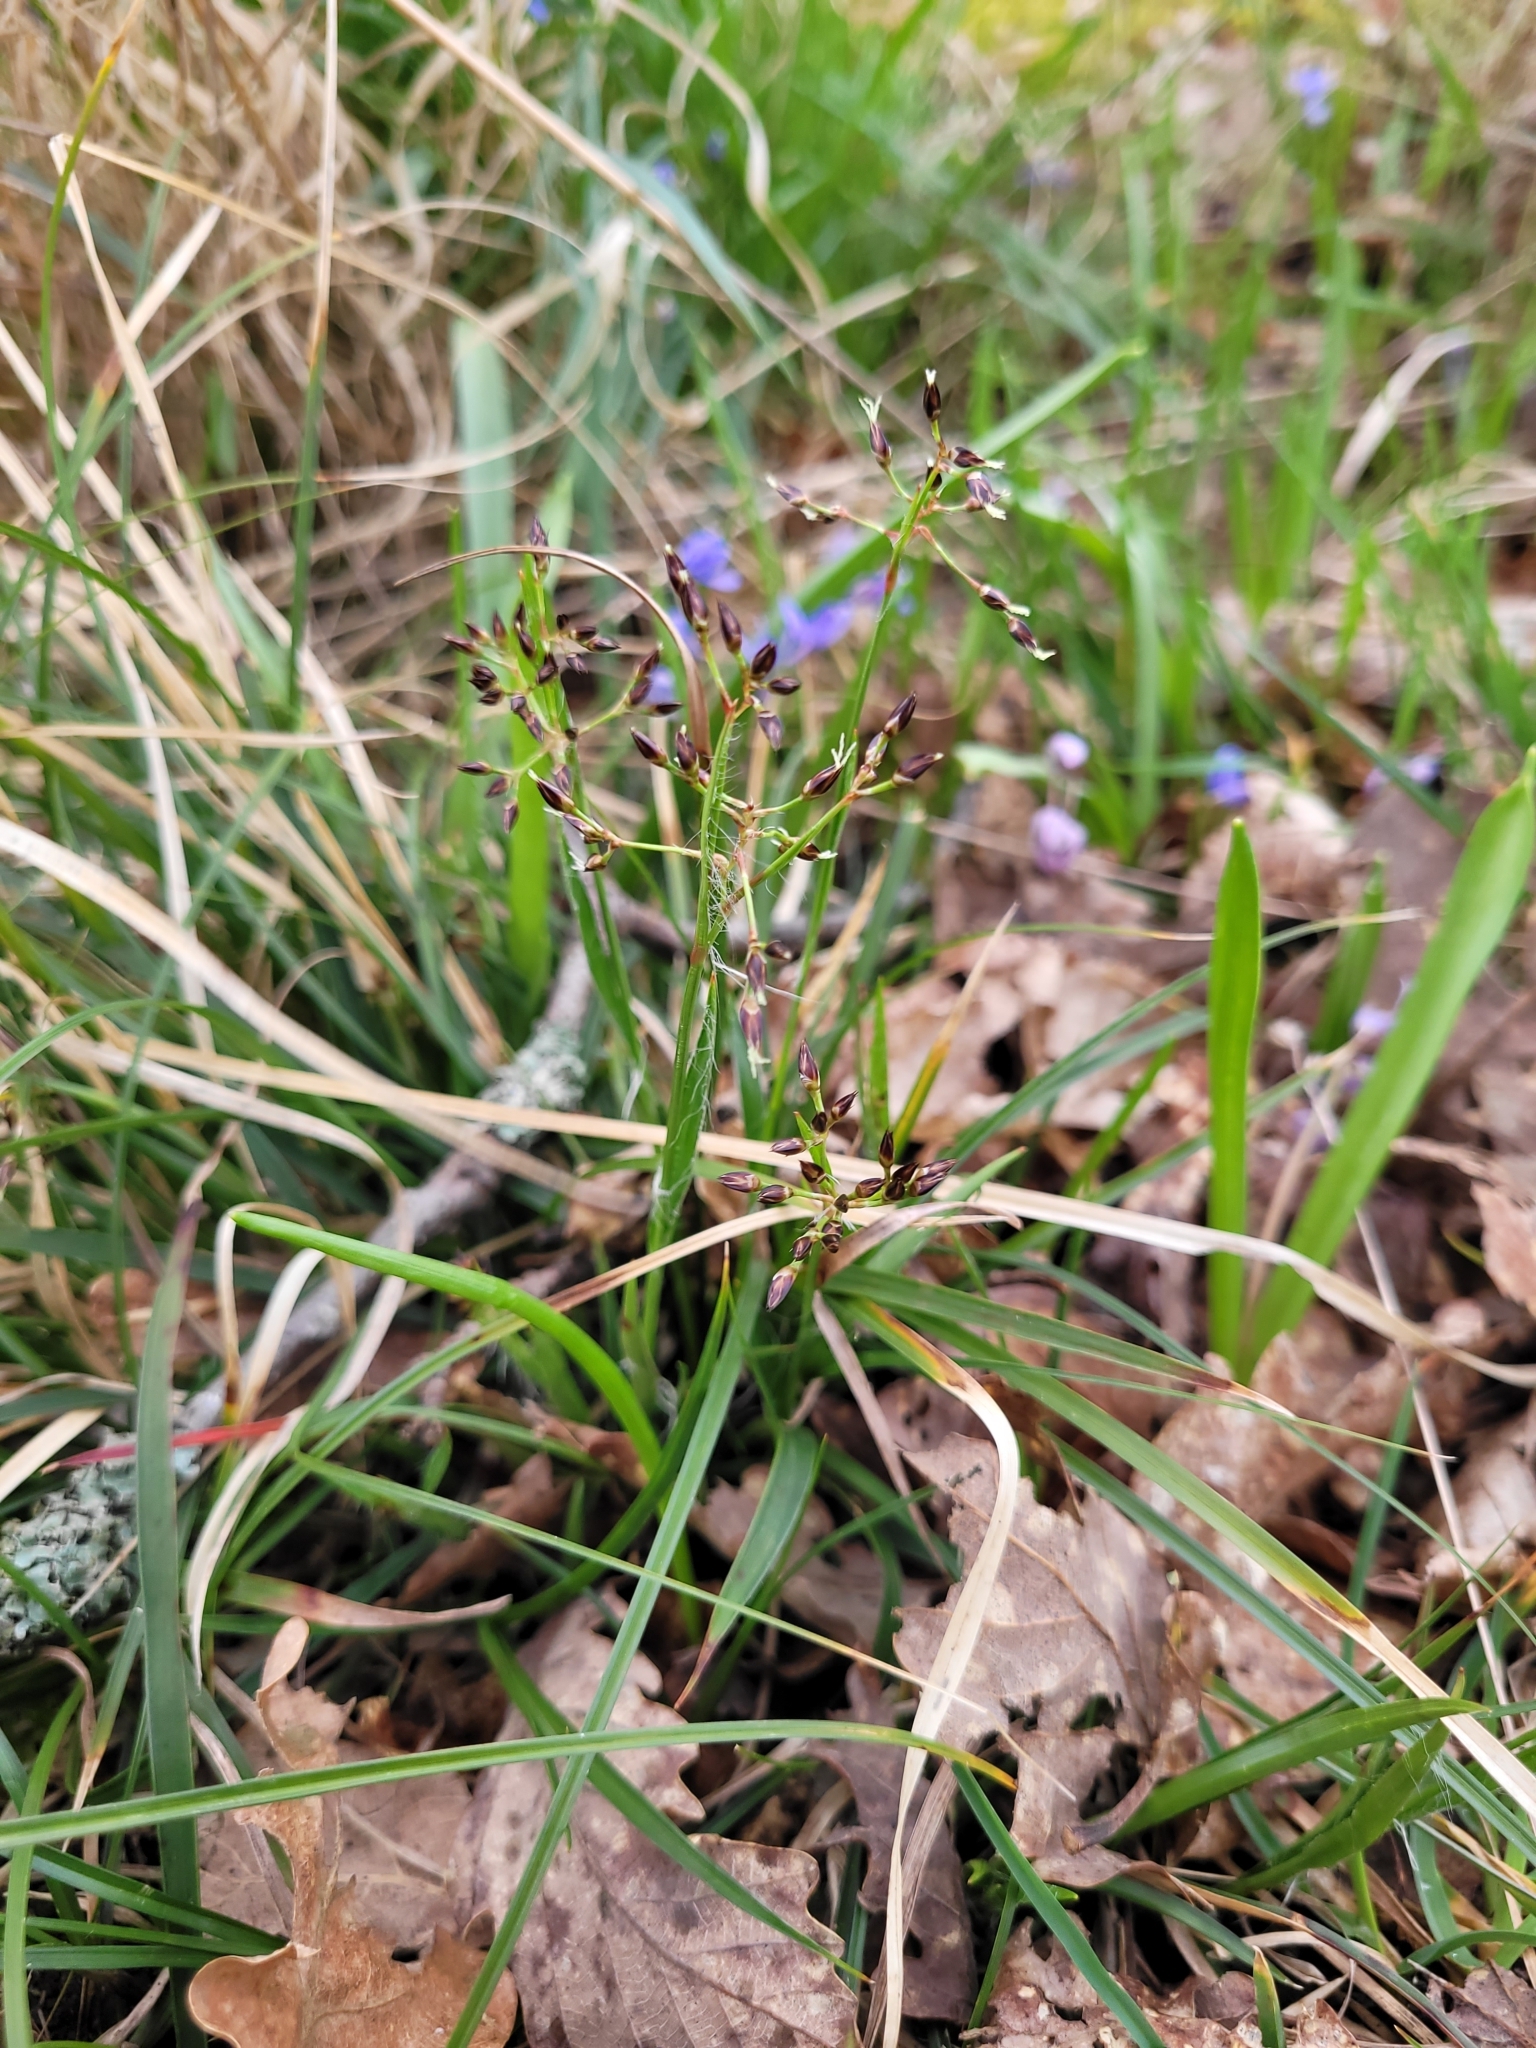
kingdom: Plantae
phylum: Tracheophyta
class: Liliopsida
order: Poales
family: Juncaceae
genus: Luzula
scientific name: Luzula pilosa
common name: Hairy wood-rush
